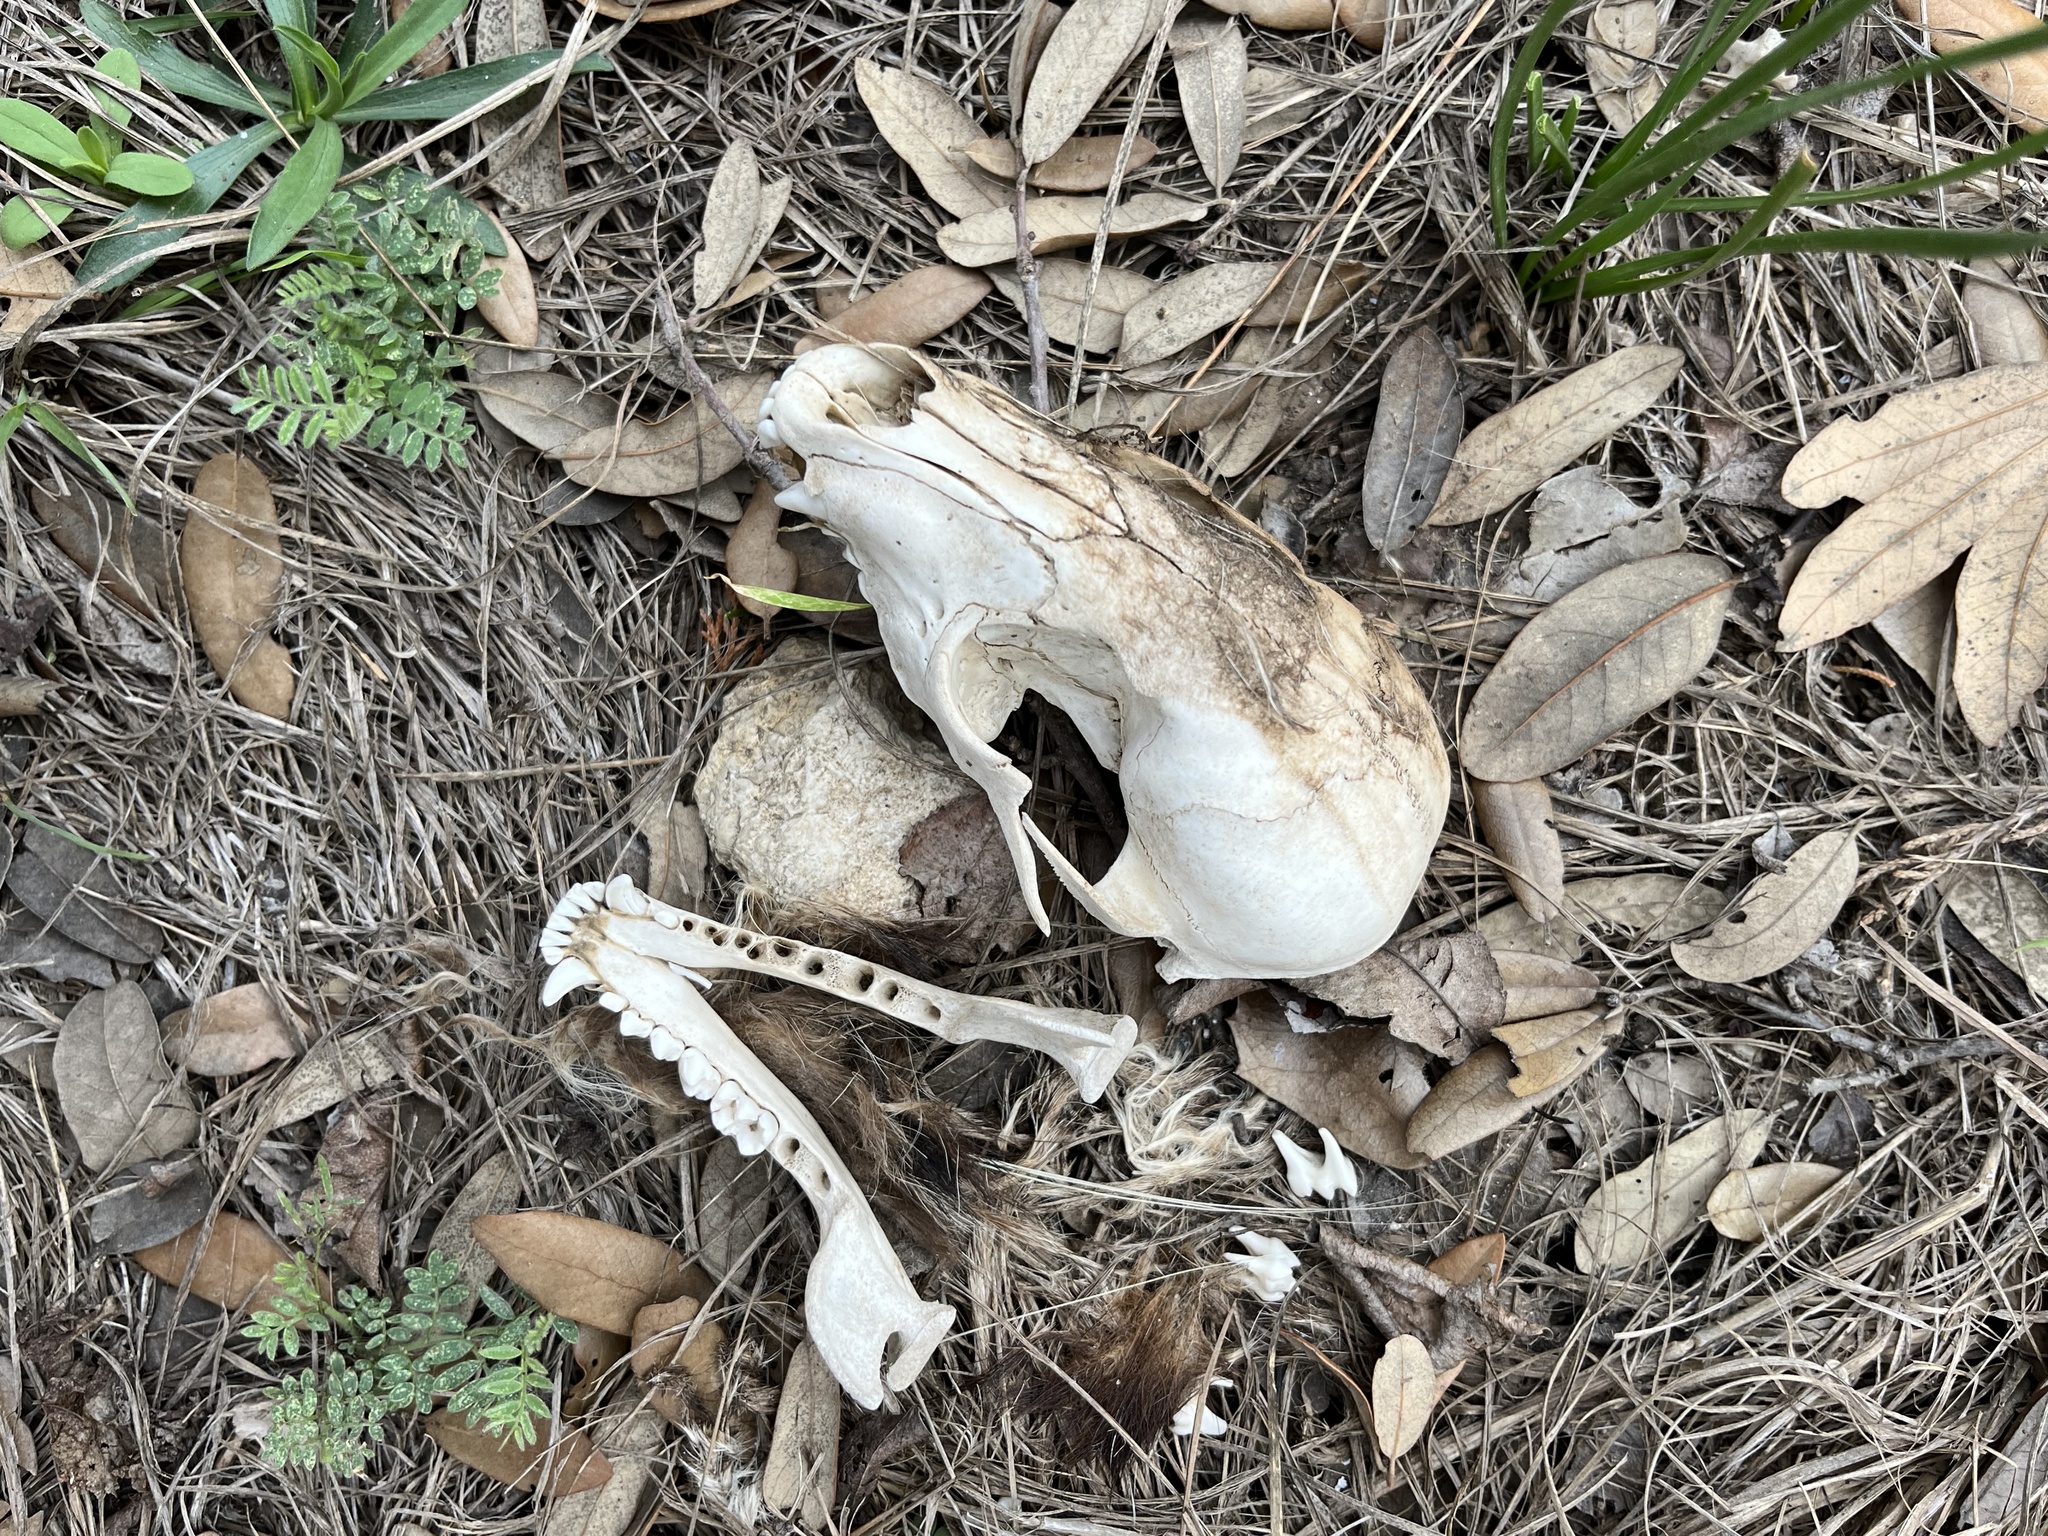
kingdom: Animalia
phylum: Chordata
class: Mammalia
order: Carnivora
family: Procyonidae
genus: Procyon
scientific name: Procyon lotor
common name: Raccoon
